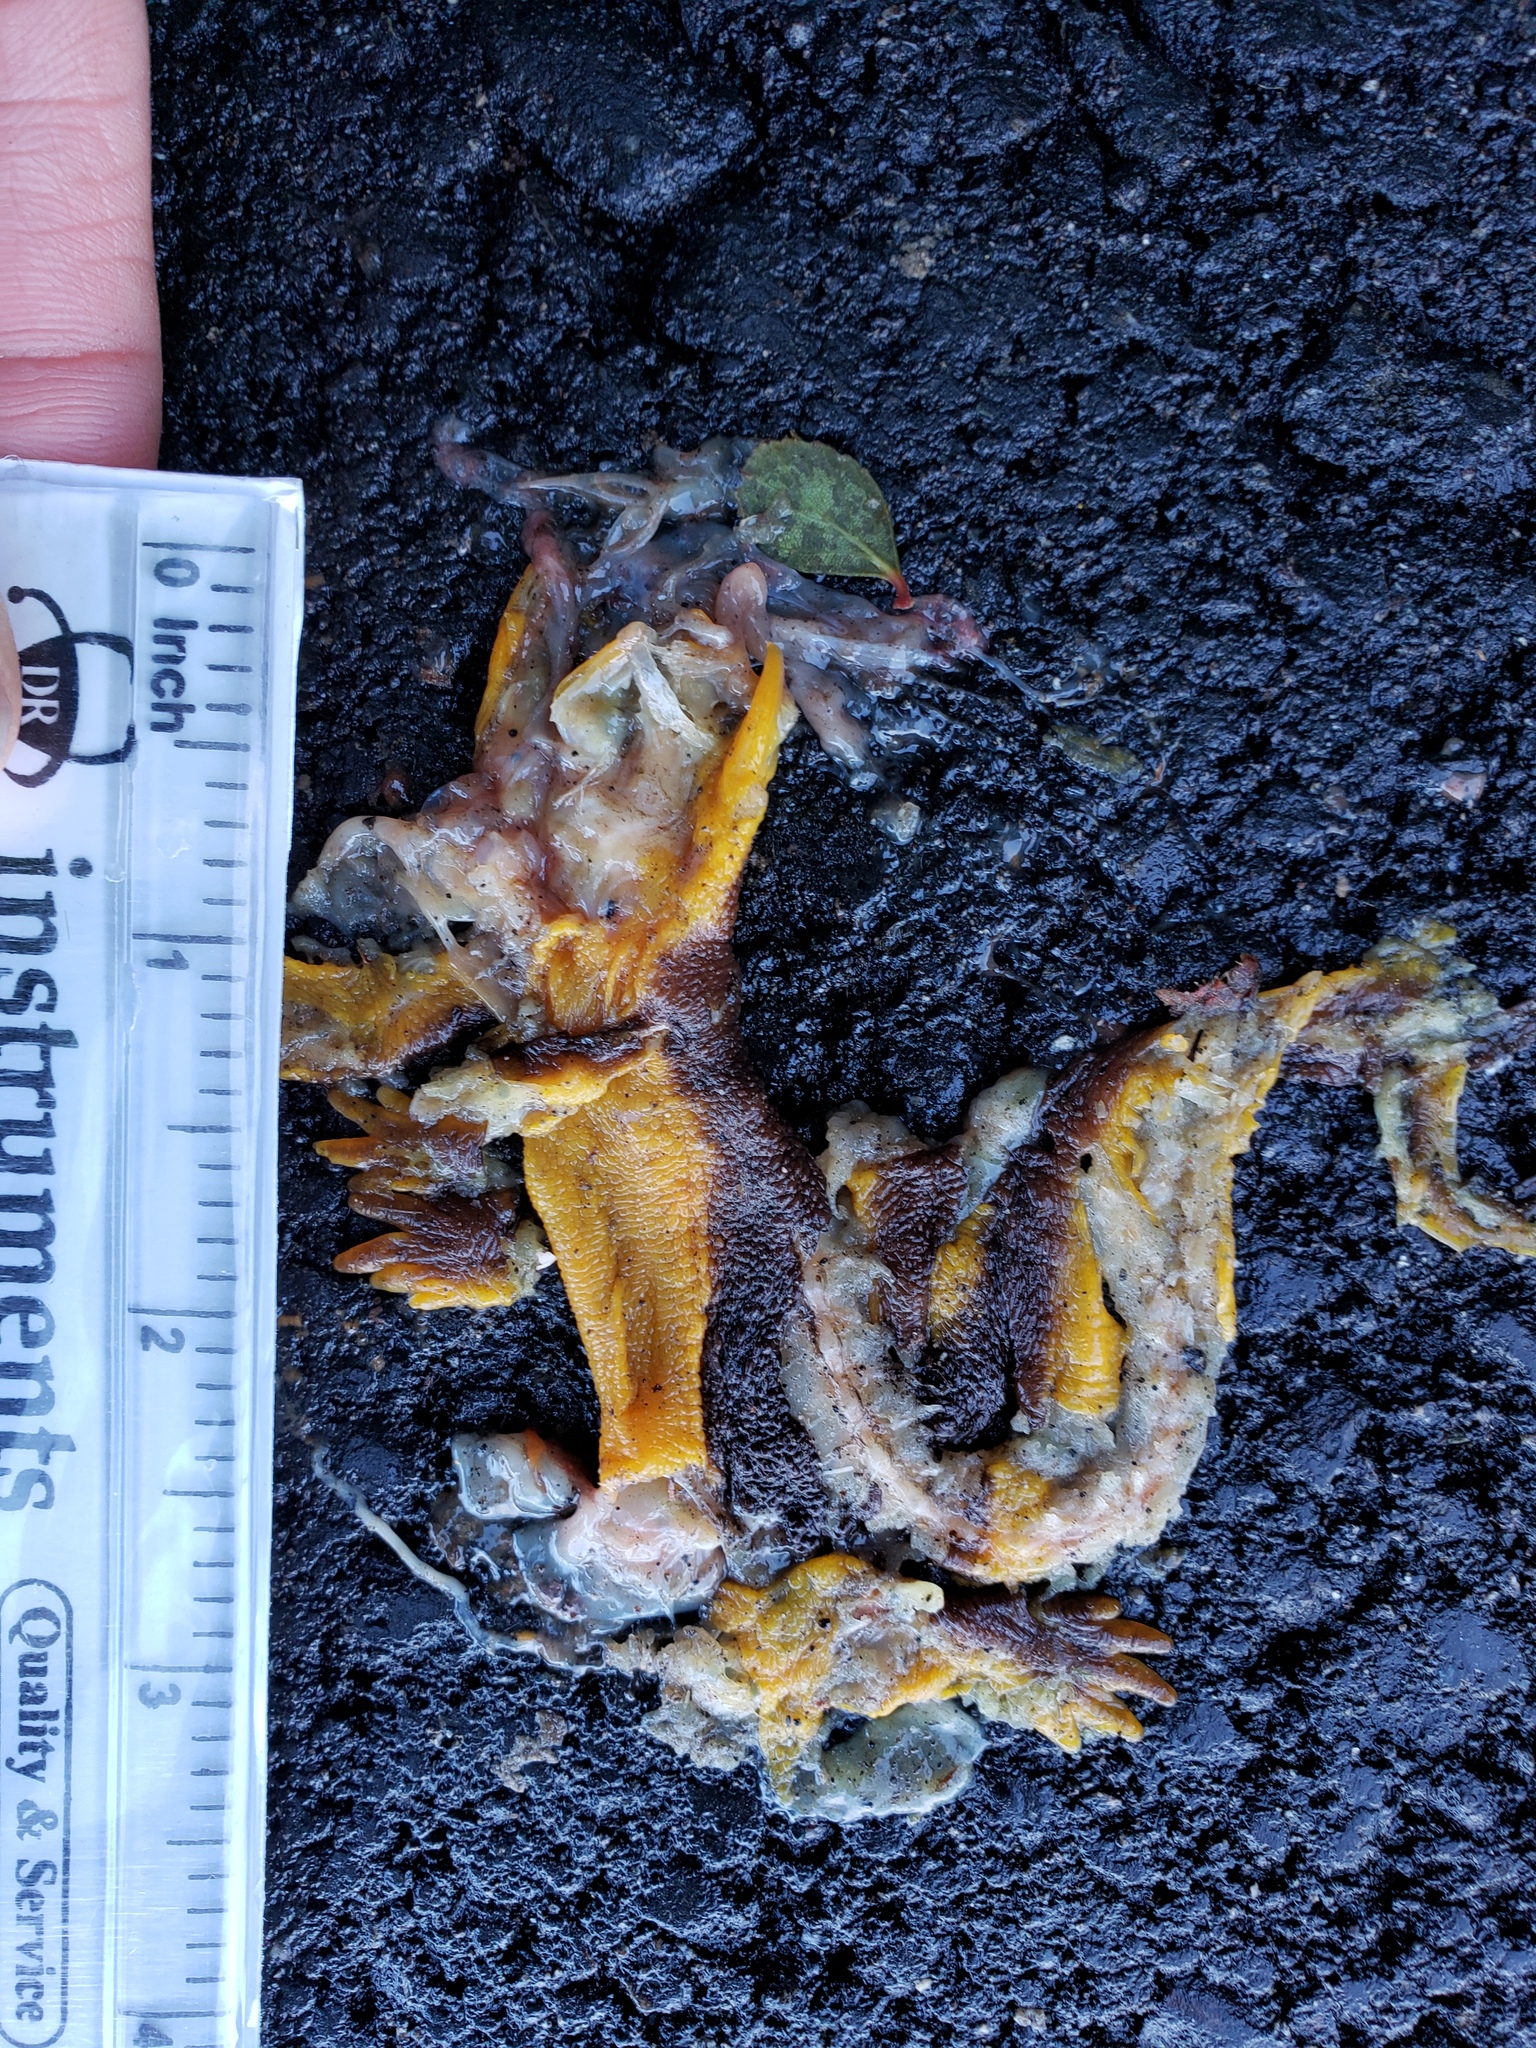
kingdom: Animalia
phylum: Chordata
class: Amphibia
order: Caudata
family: Salamandridae
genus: Taricha
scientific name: Taricha
